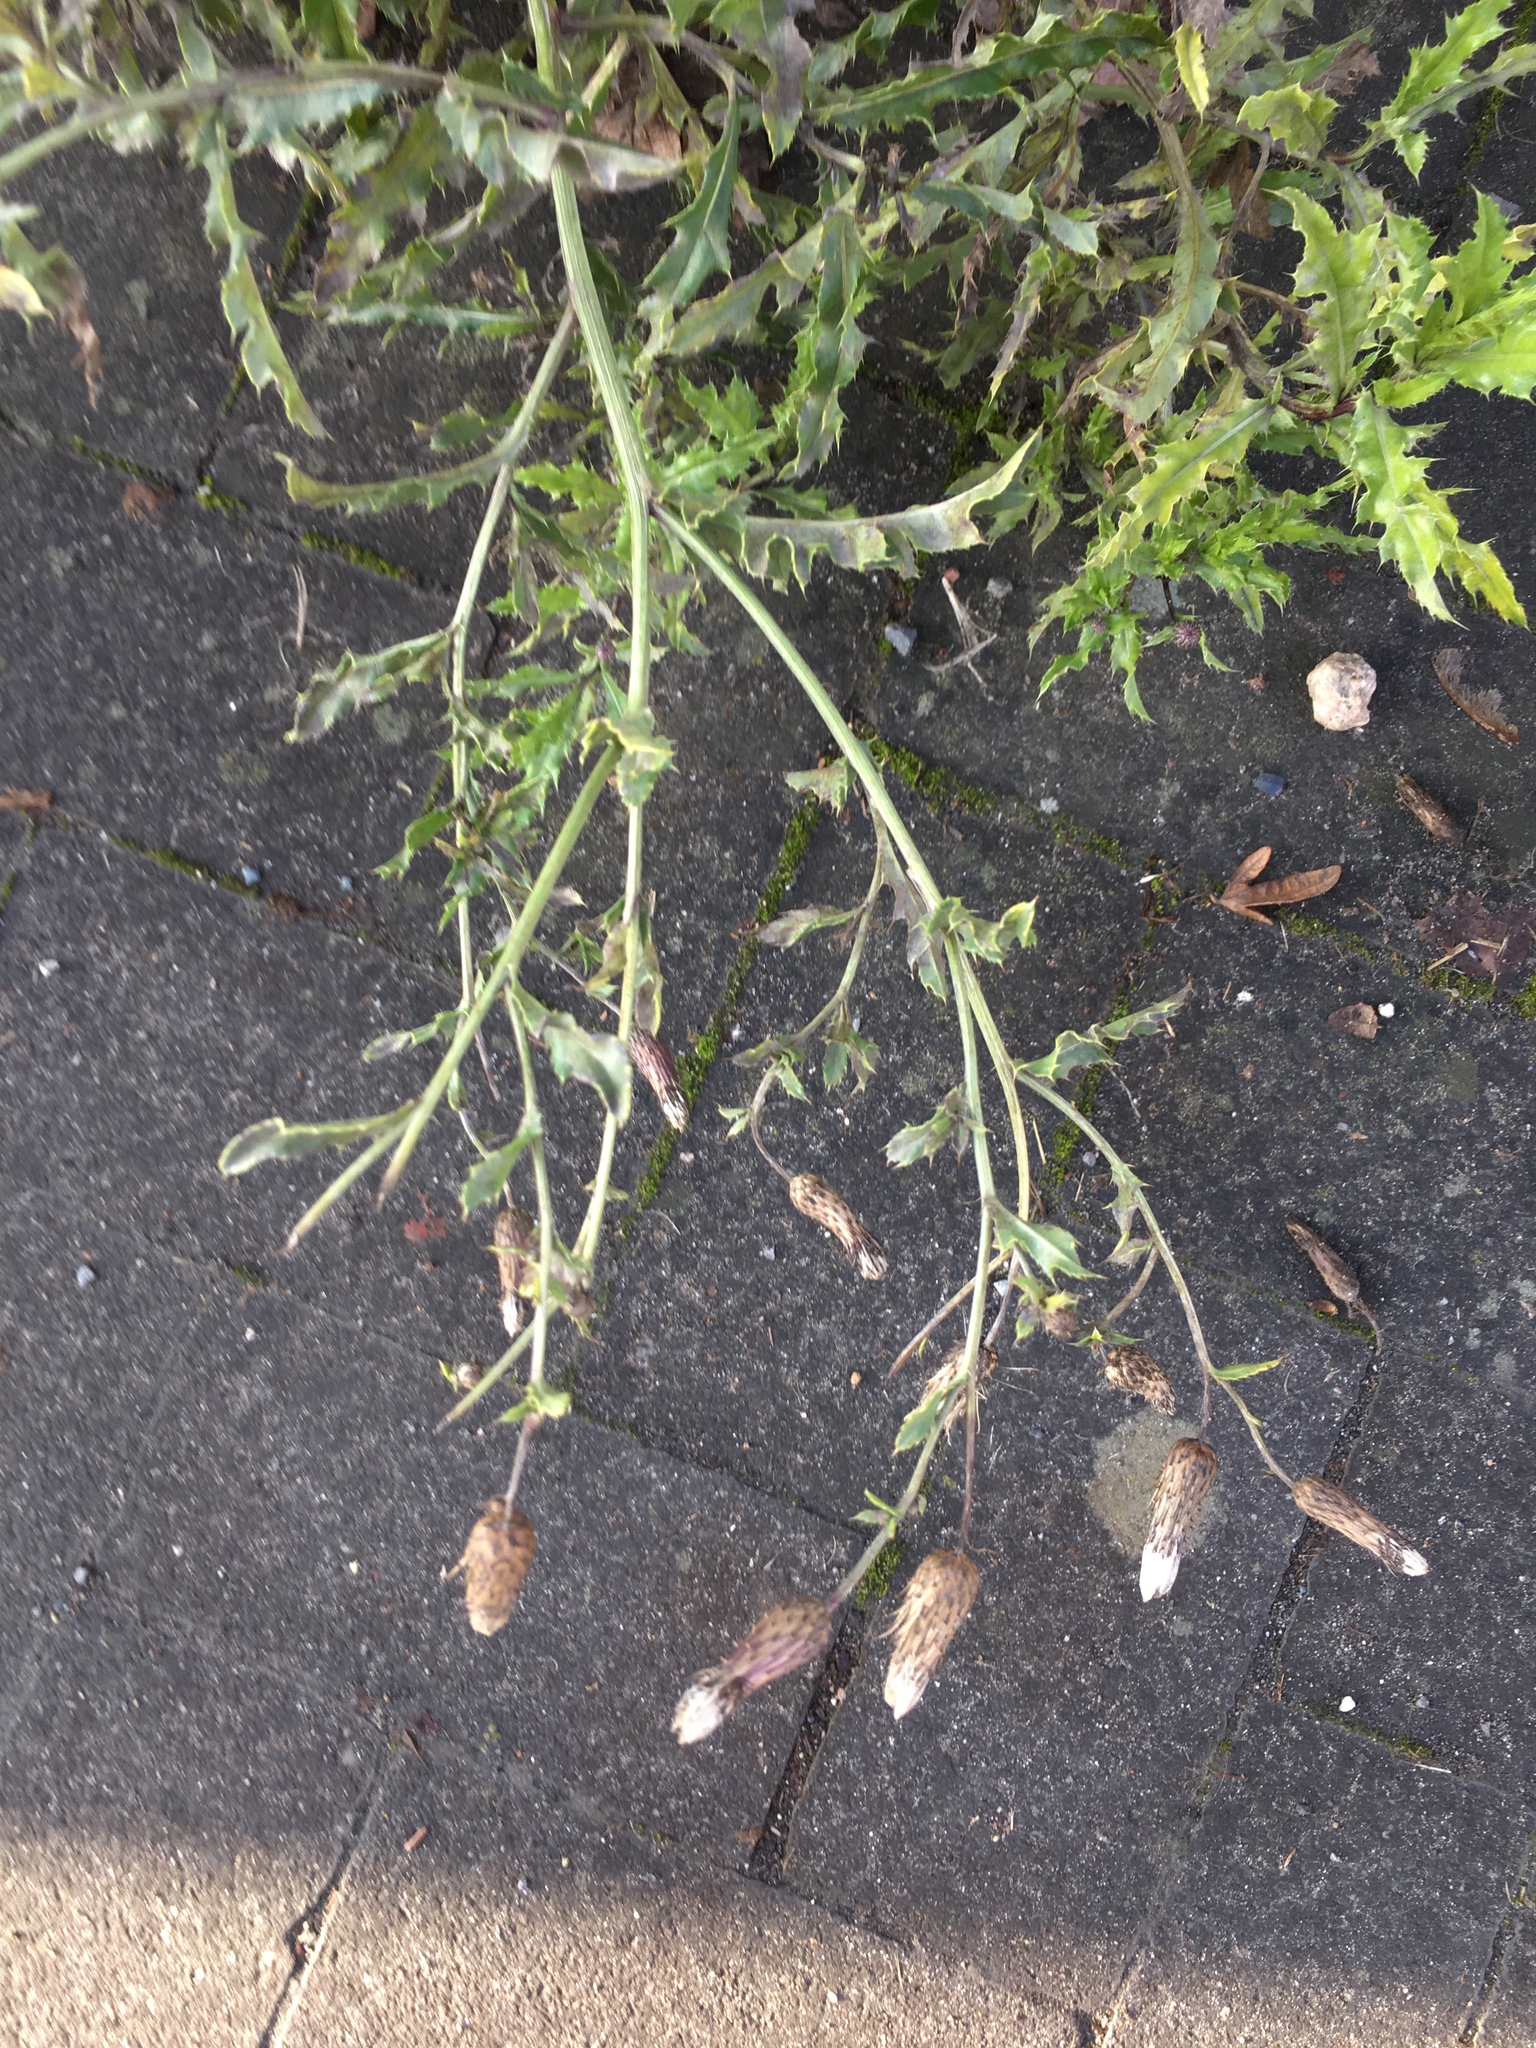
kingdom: Plantae
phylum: Tracheophyta
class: Magnoliopsida
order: Asterales
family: Asteraceae
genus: Cirsium
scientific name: Cirsium arvense
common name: Creeping thistle
